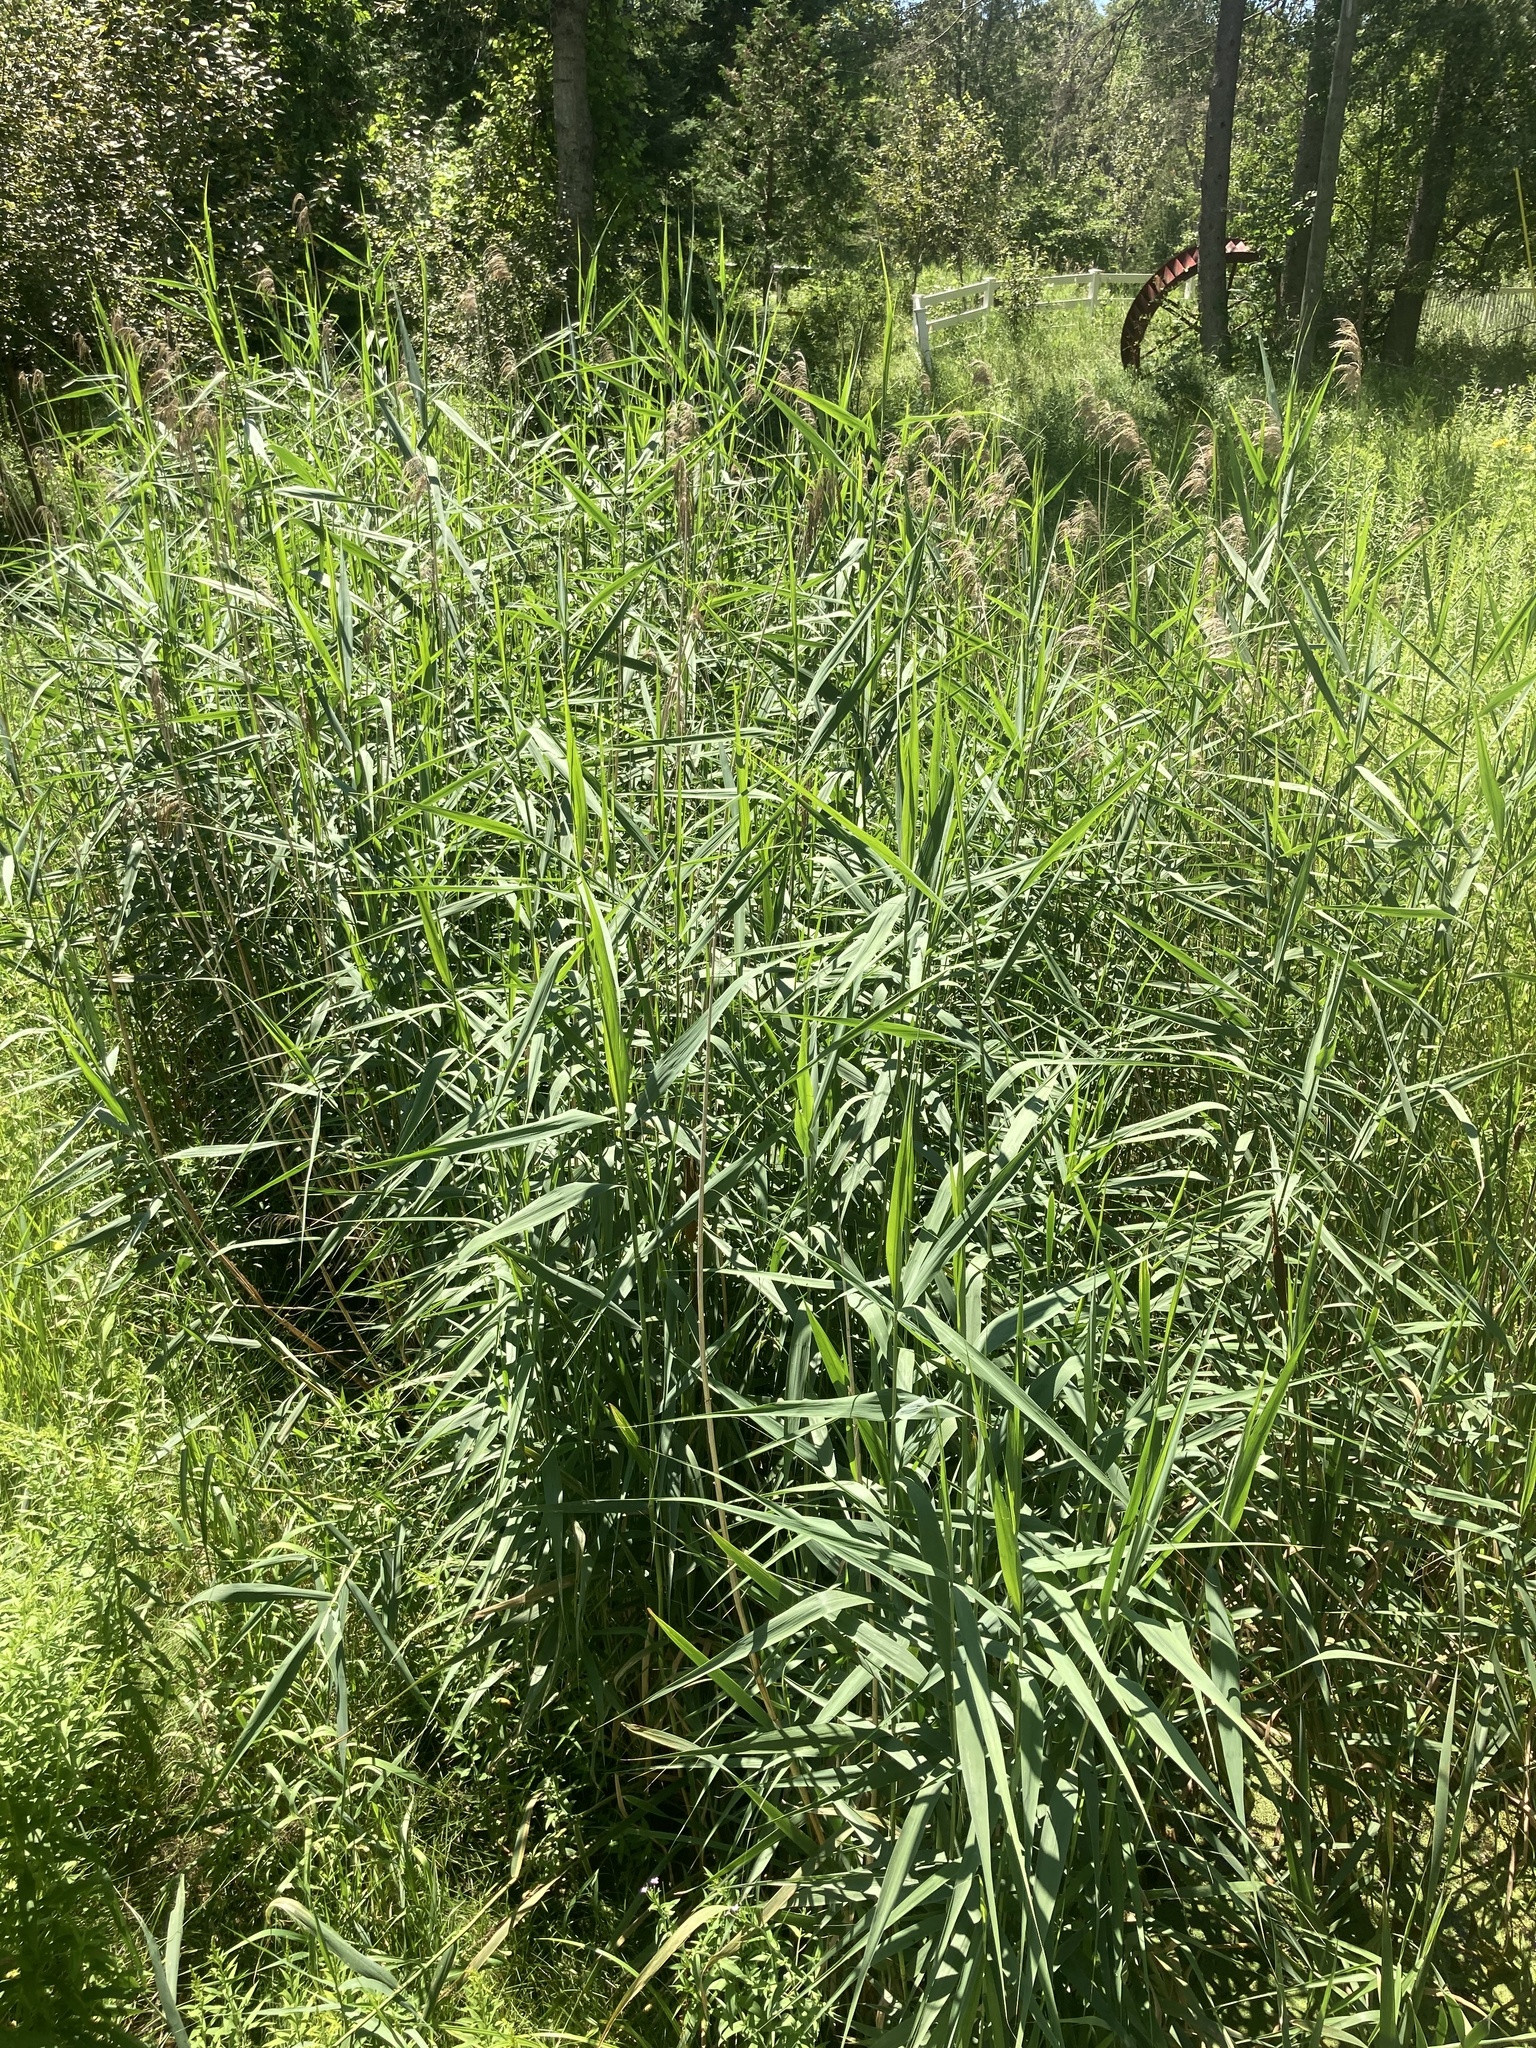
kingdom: Plantae
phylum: Tracheophyta
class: Liliopsida
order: Poales
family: Poaceae
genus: Phragmites
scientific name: Phragmites australis
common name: Common reed
